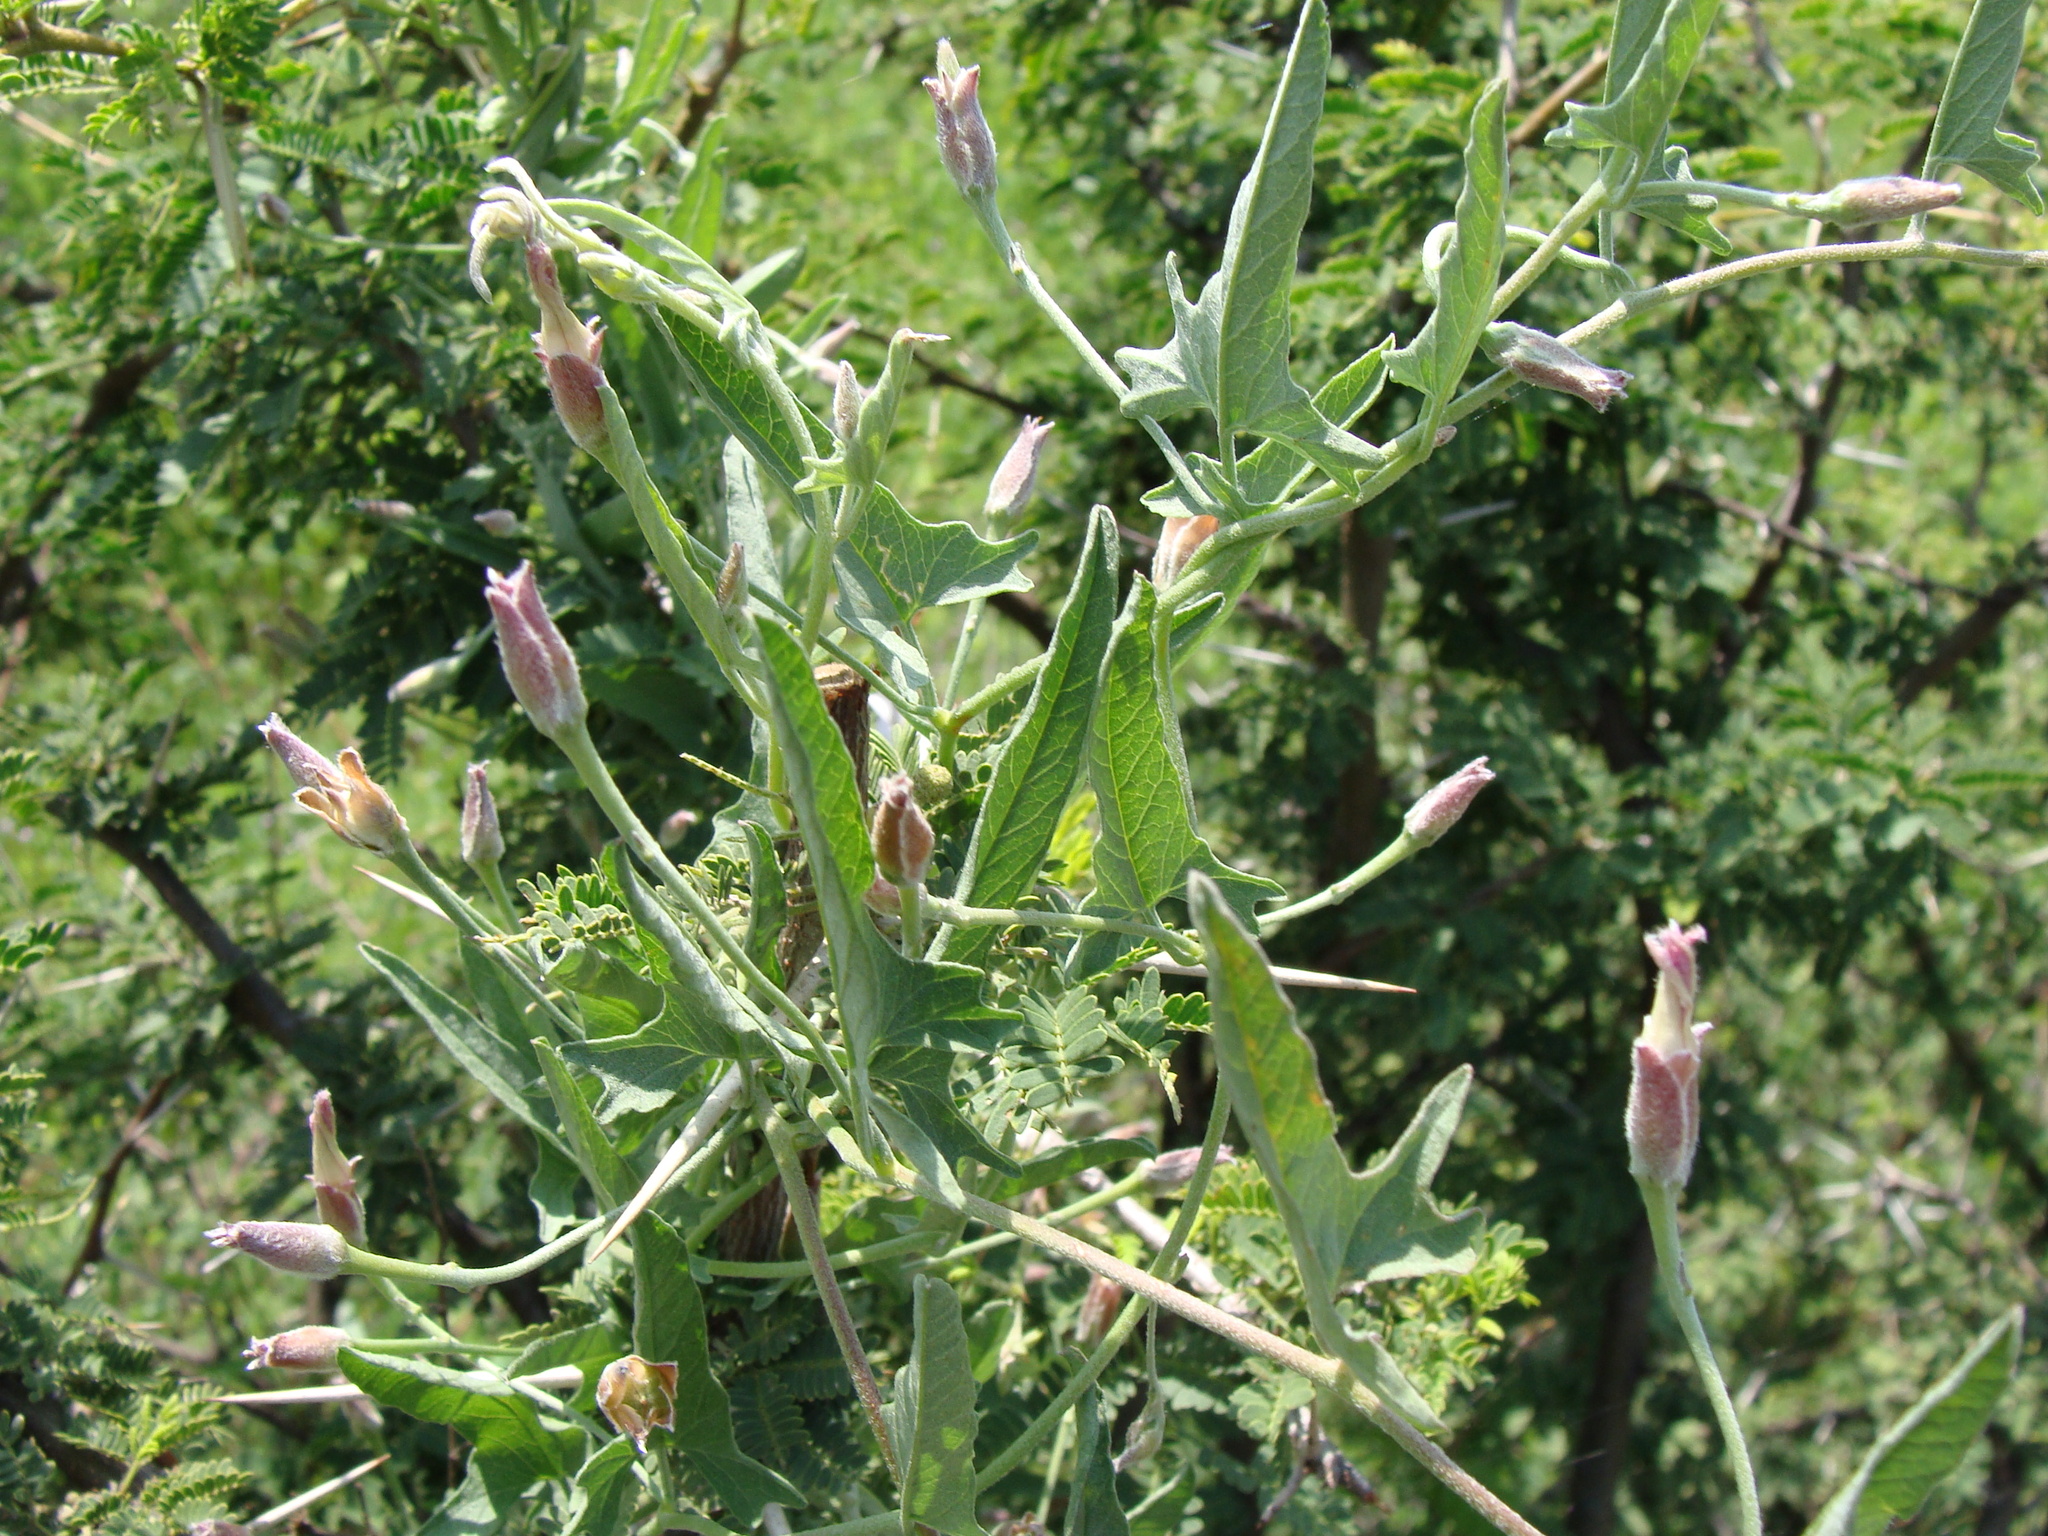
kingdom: Plantae
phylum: Tracheophyta
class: Magnoliopsida
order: Solanales
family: Convolvulaceae
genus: Convolvulus
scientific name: Convolvulus equitans
